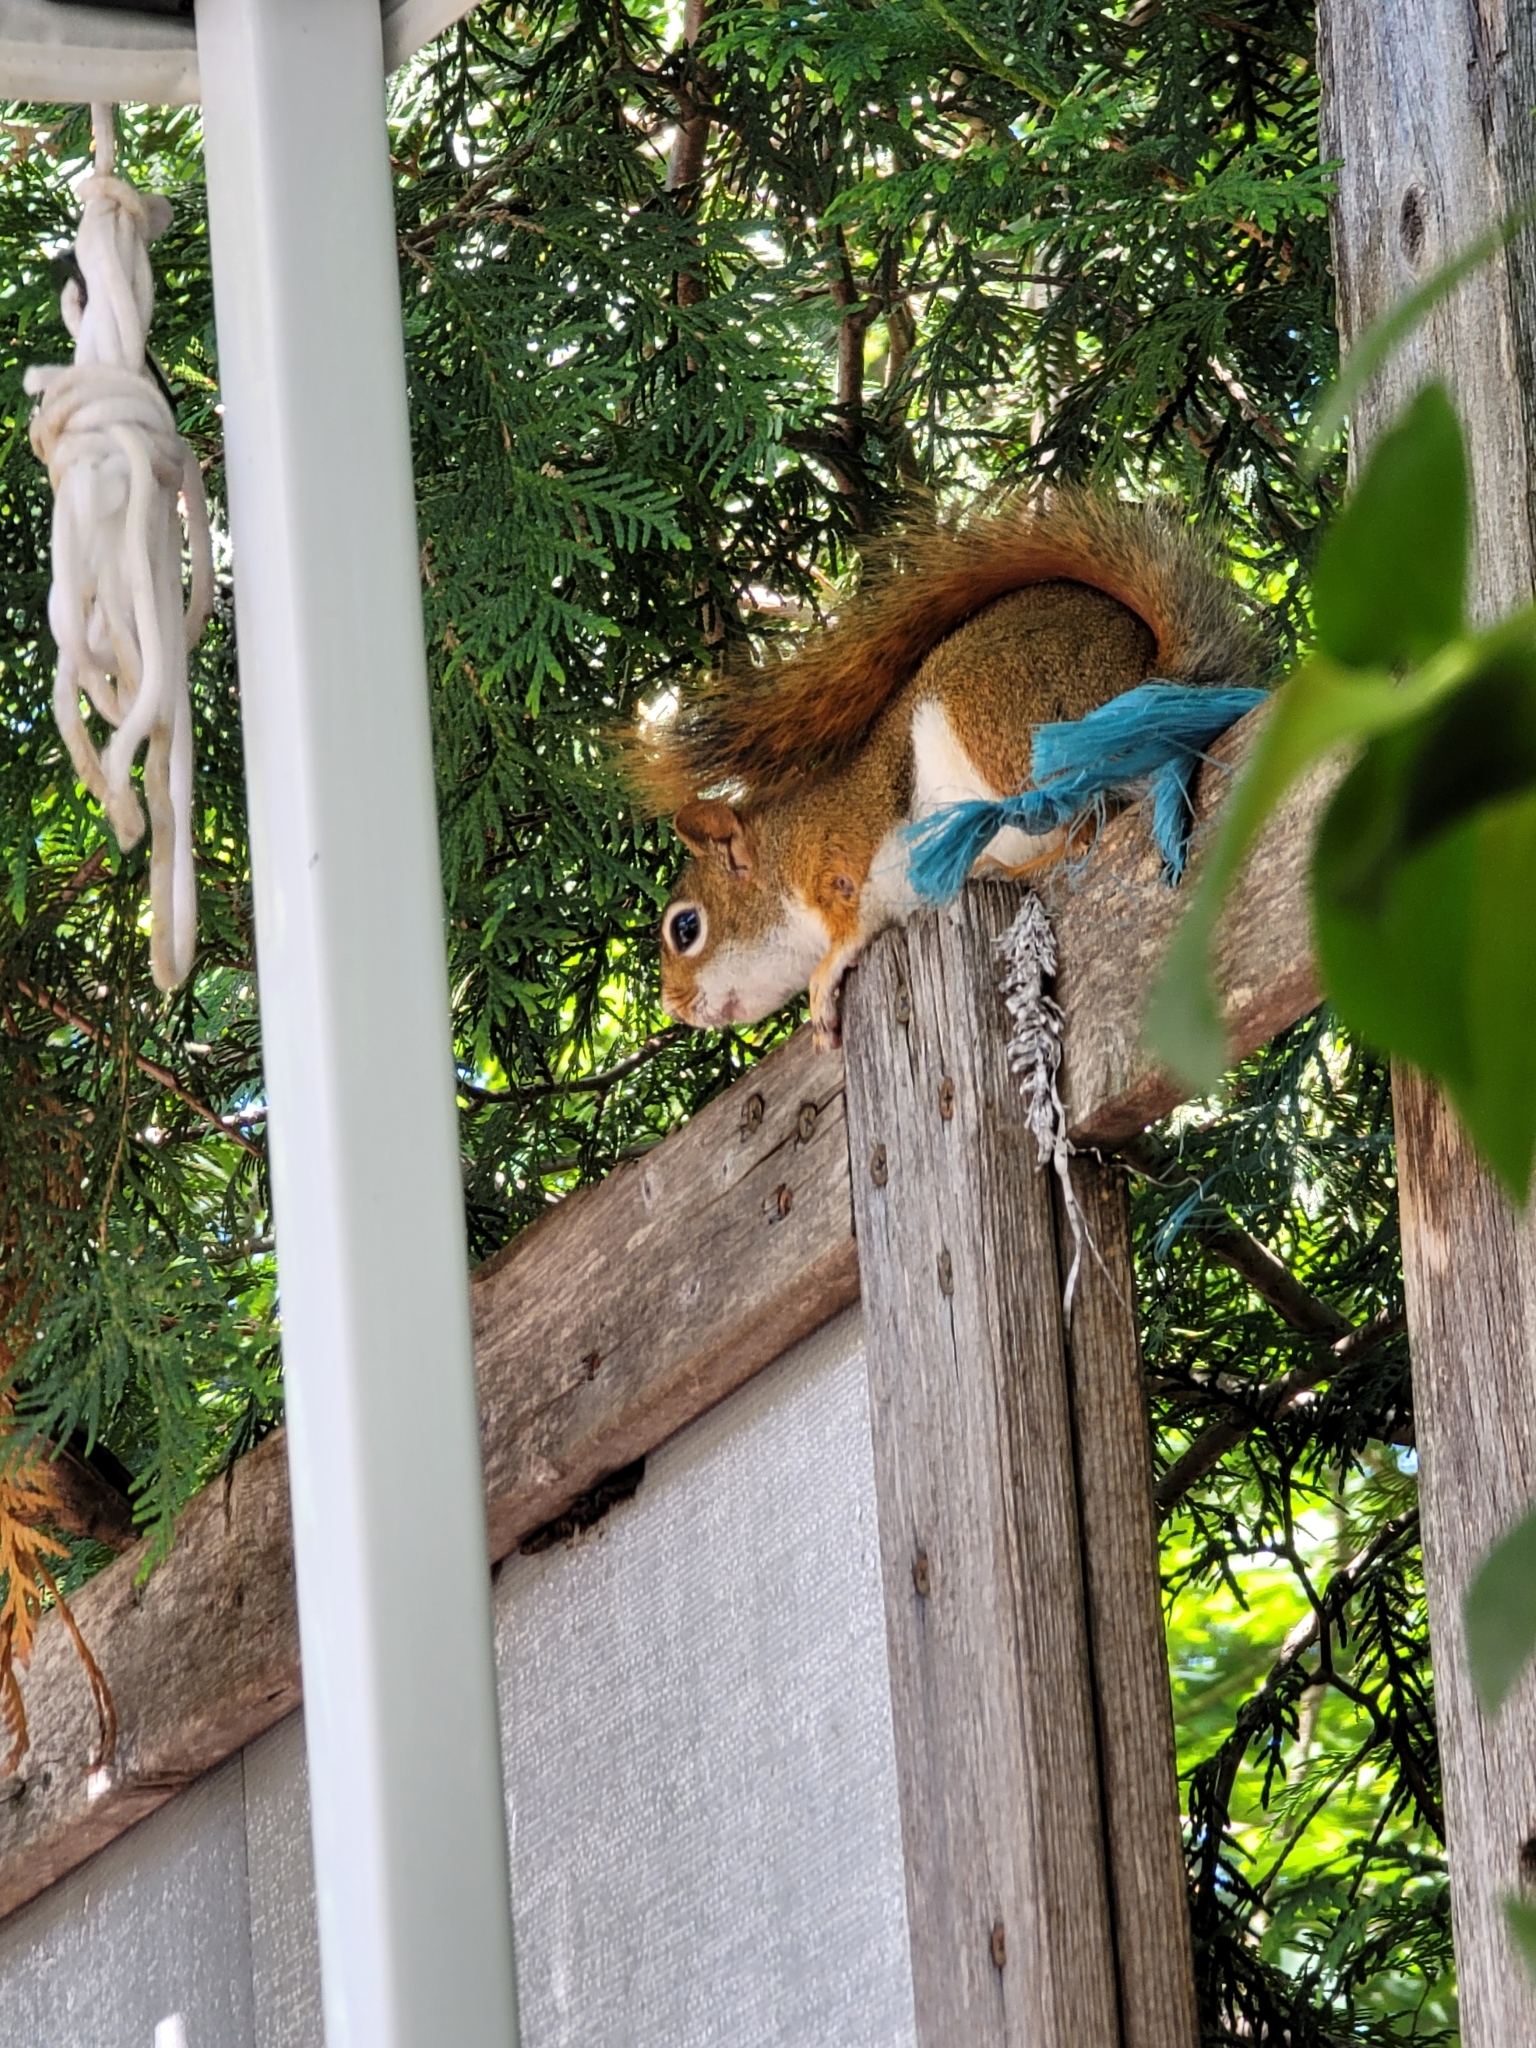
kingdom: Animalia
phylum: Chordata
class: Mammalia
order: Rodentia
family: Sciuridae
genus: Tamiasciurus
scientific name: Tamiasciurus hudsonicus
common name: Red squirrel
